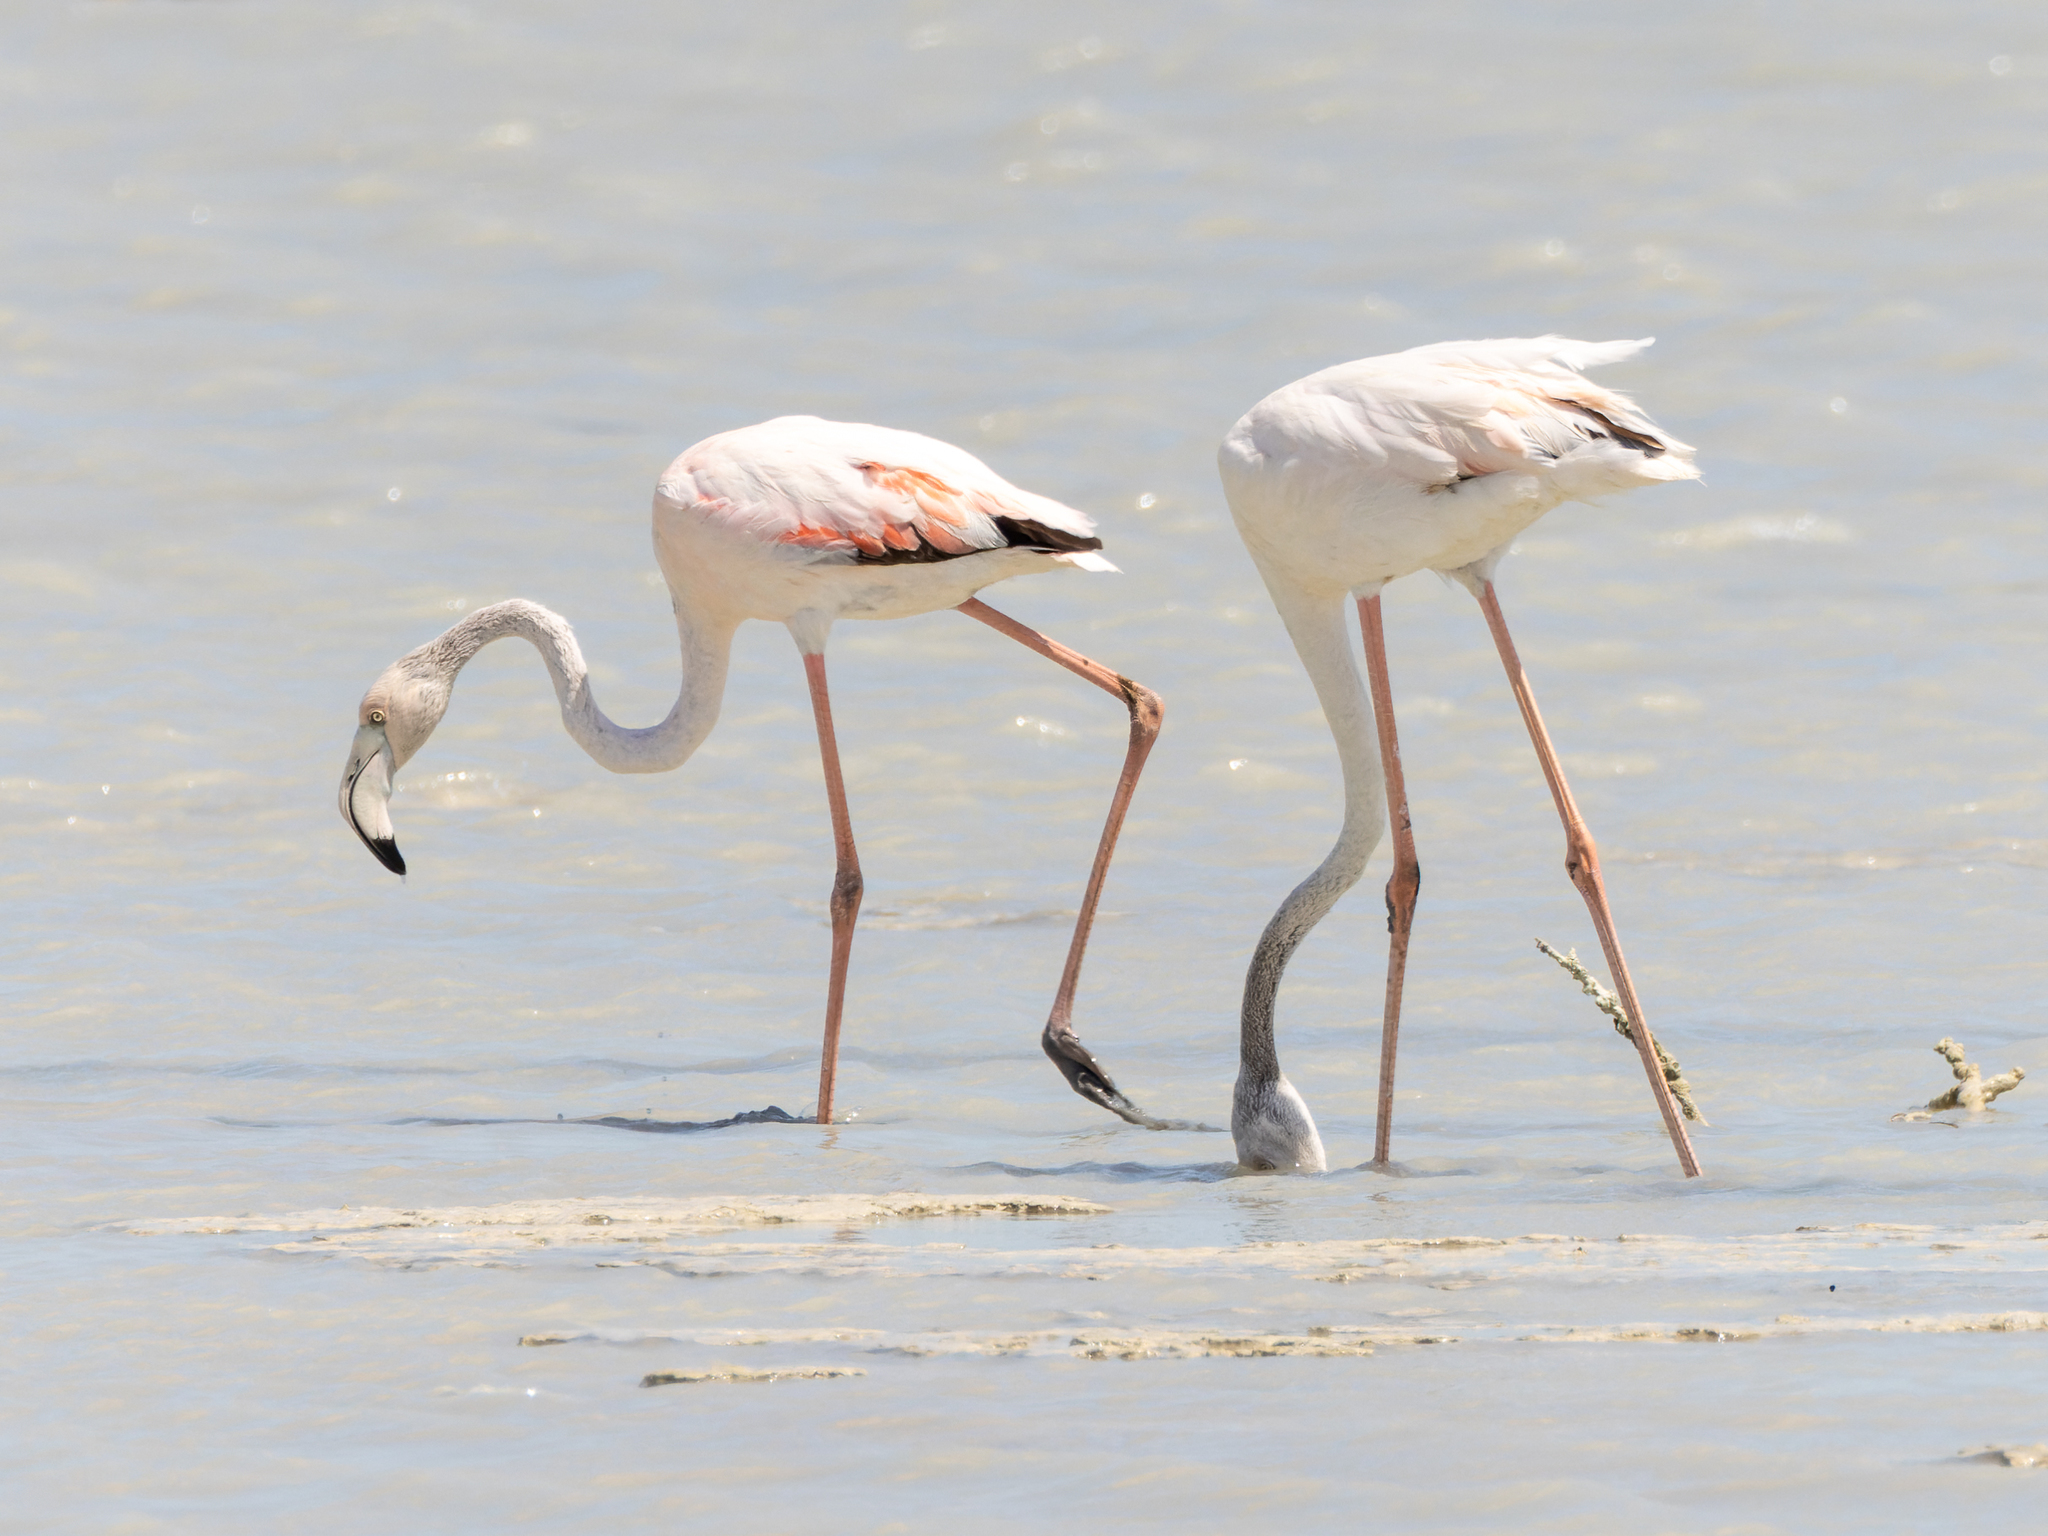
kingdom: Animalia
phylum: Chordata
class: Aves
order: Phoenicopteriformes
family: Phoenicopteridae
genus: Phoenicopterus
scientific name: Phoenicopterus roseus
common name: Greater flamingo
